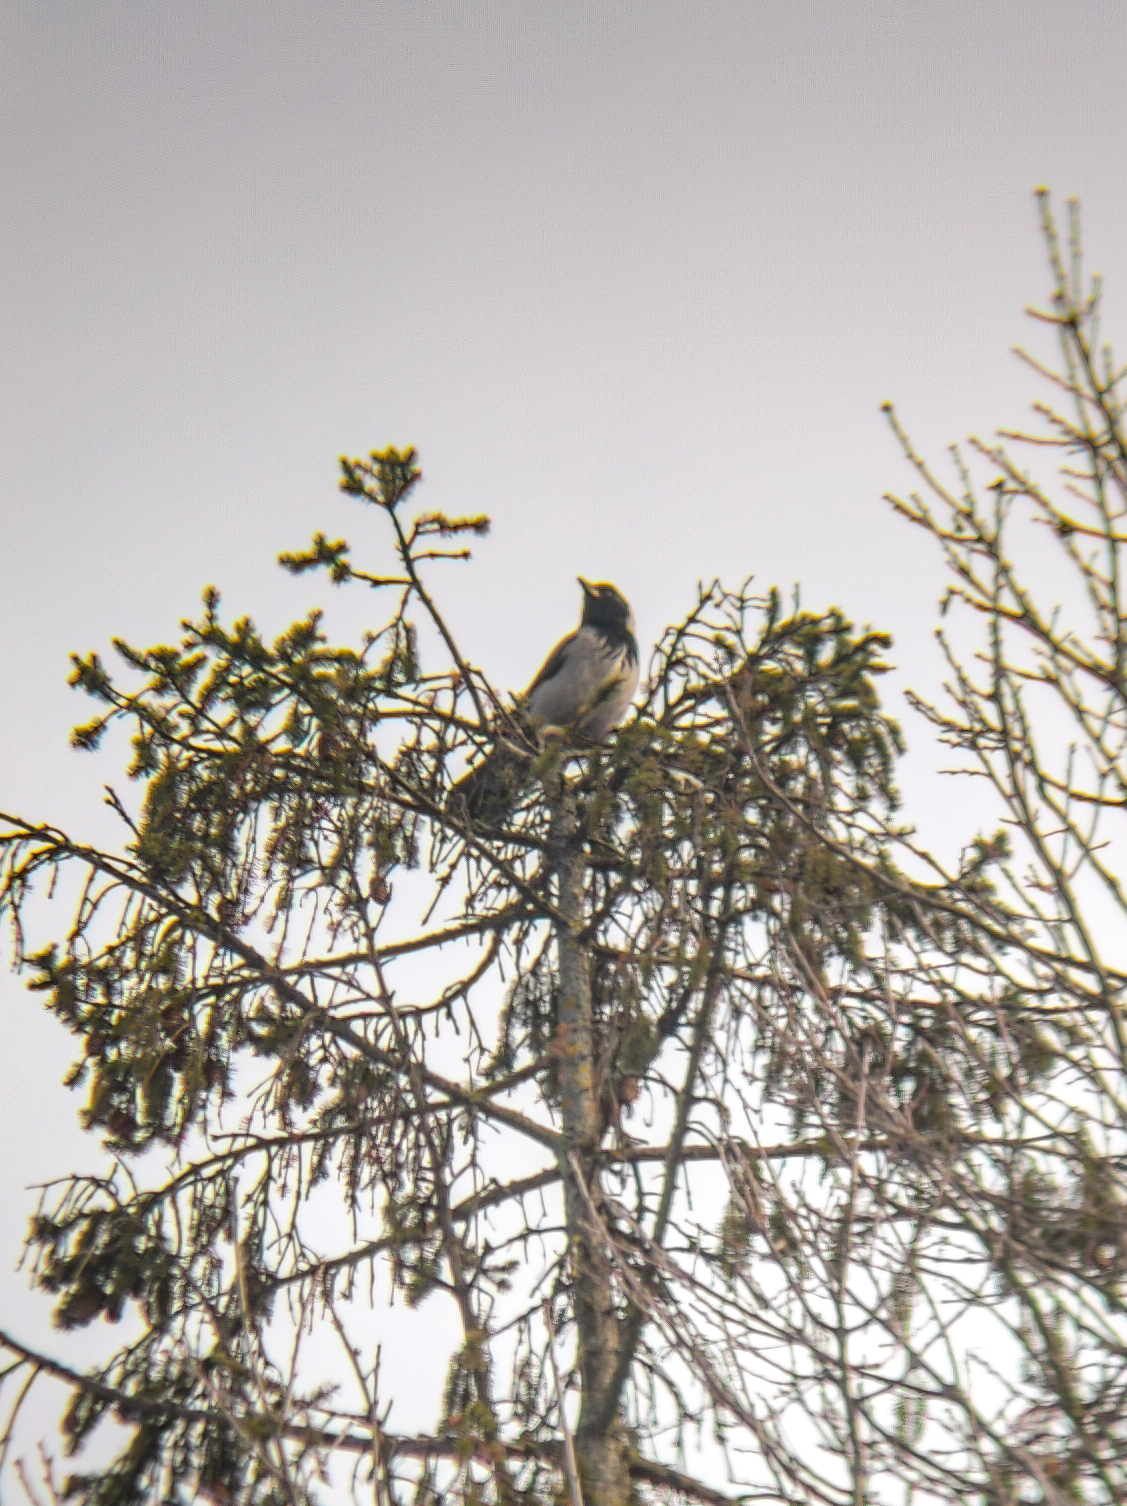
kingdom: Animalia
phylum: Chordata
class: Aves
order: Passeriformes
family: Corvidae
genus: Corvus
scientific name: Corvus cornix
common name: Hooded crow
